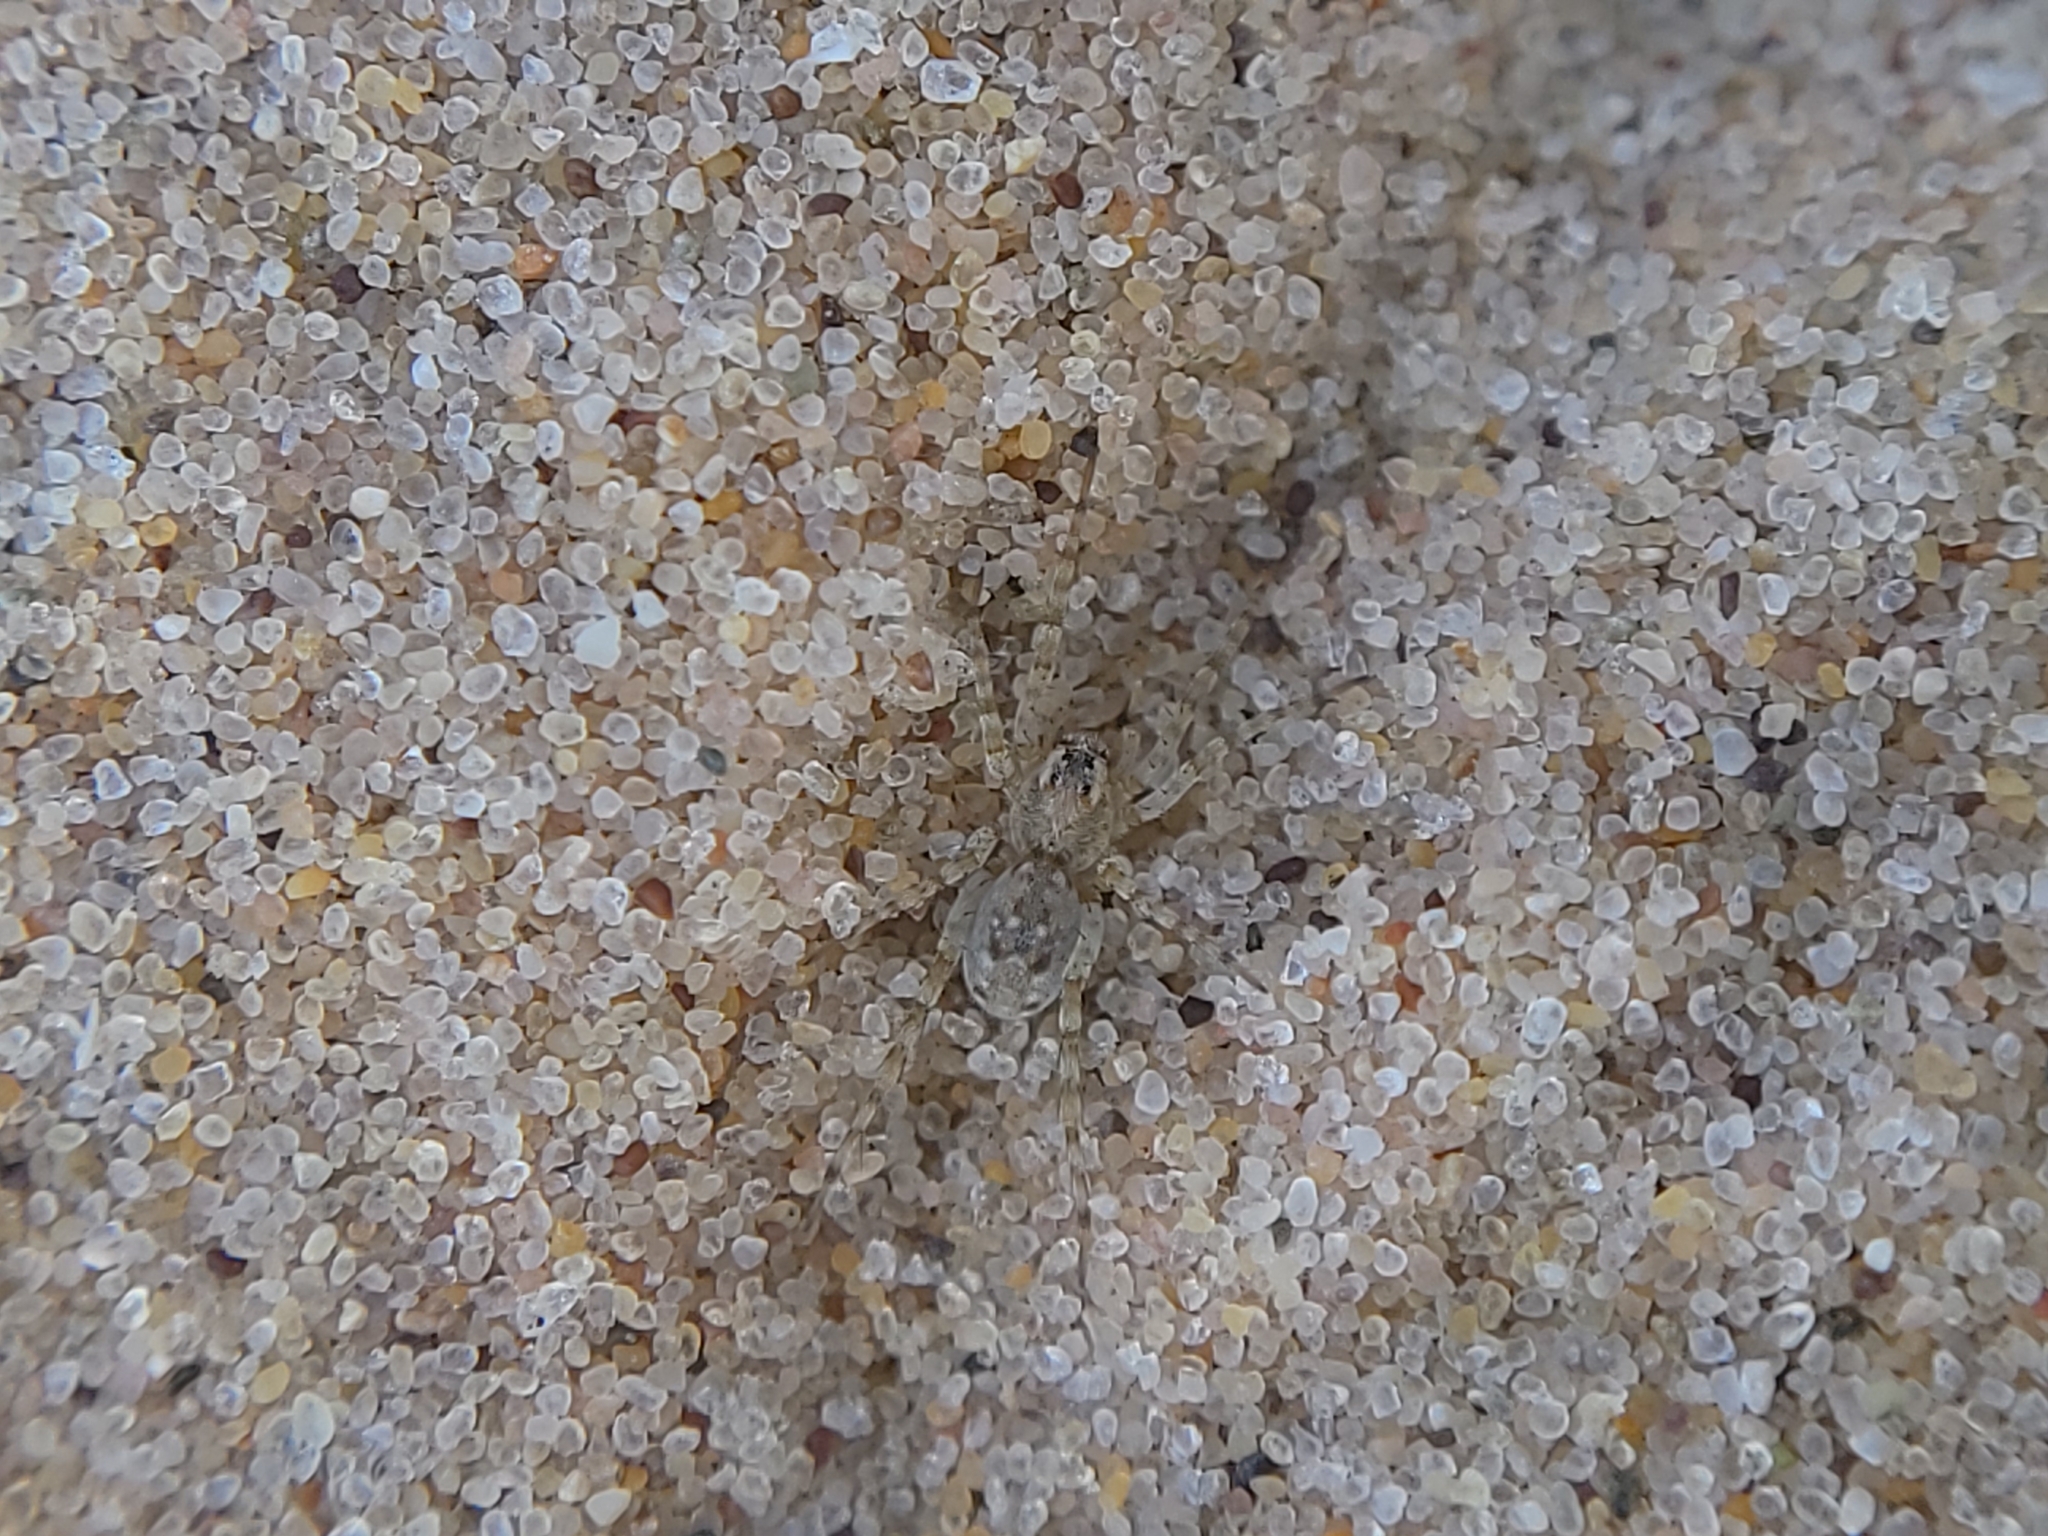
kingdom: Animalia
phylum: Arthropoda
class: Arachnida
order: Araneae
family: Lycosidae
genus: Arctosa
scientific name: Arctosa littoralis
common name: Wolf spiders
